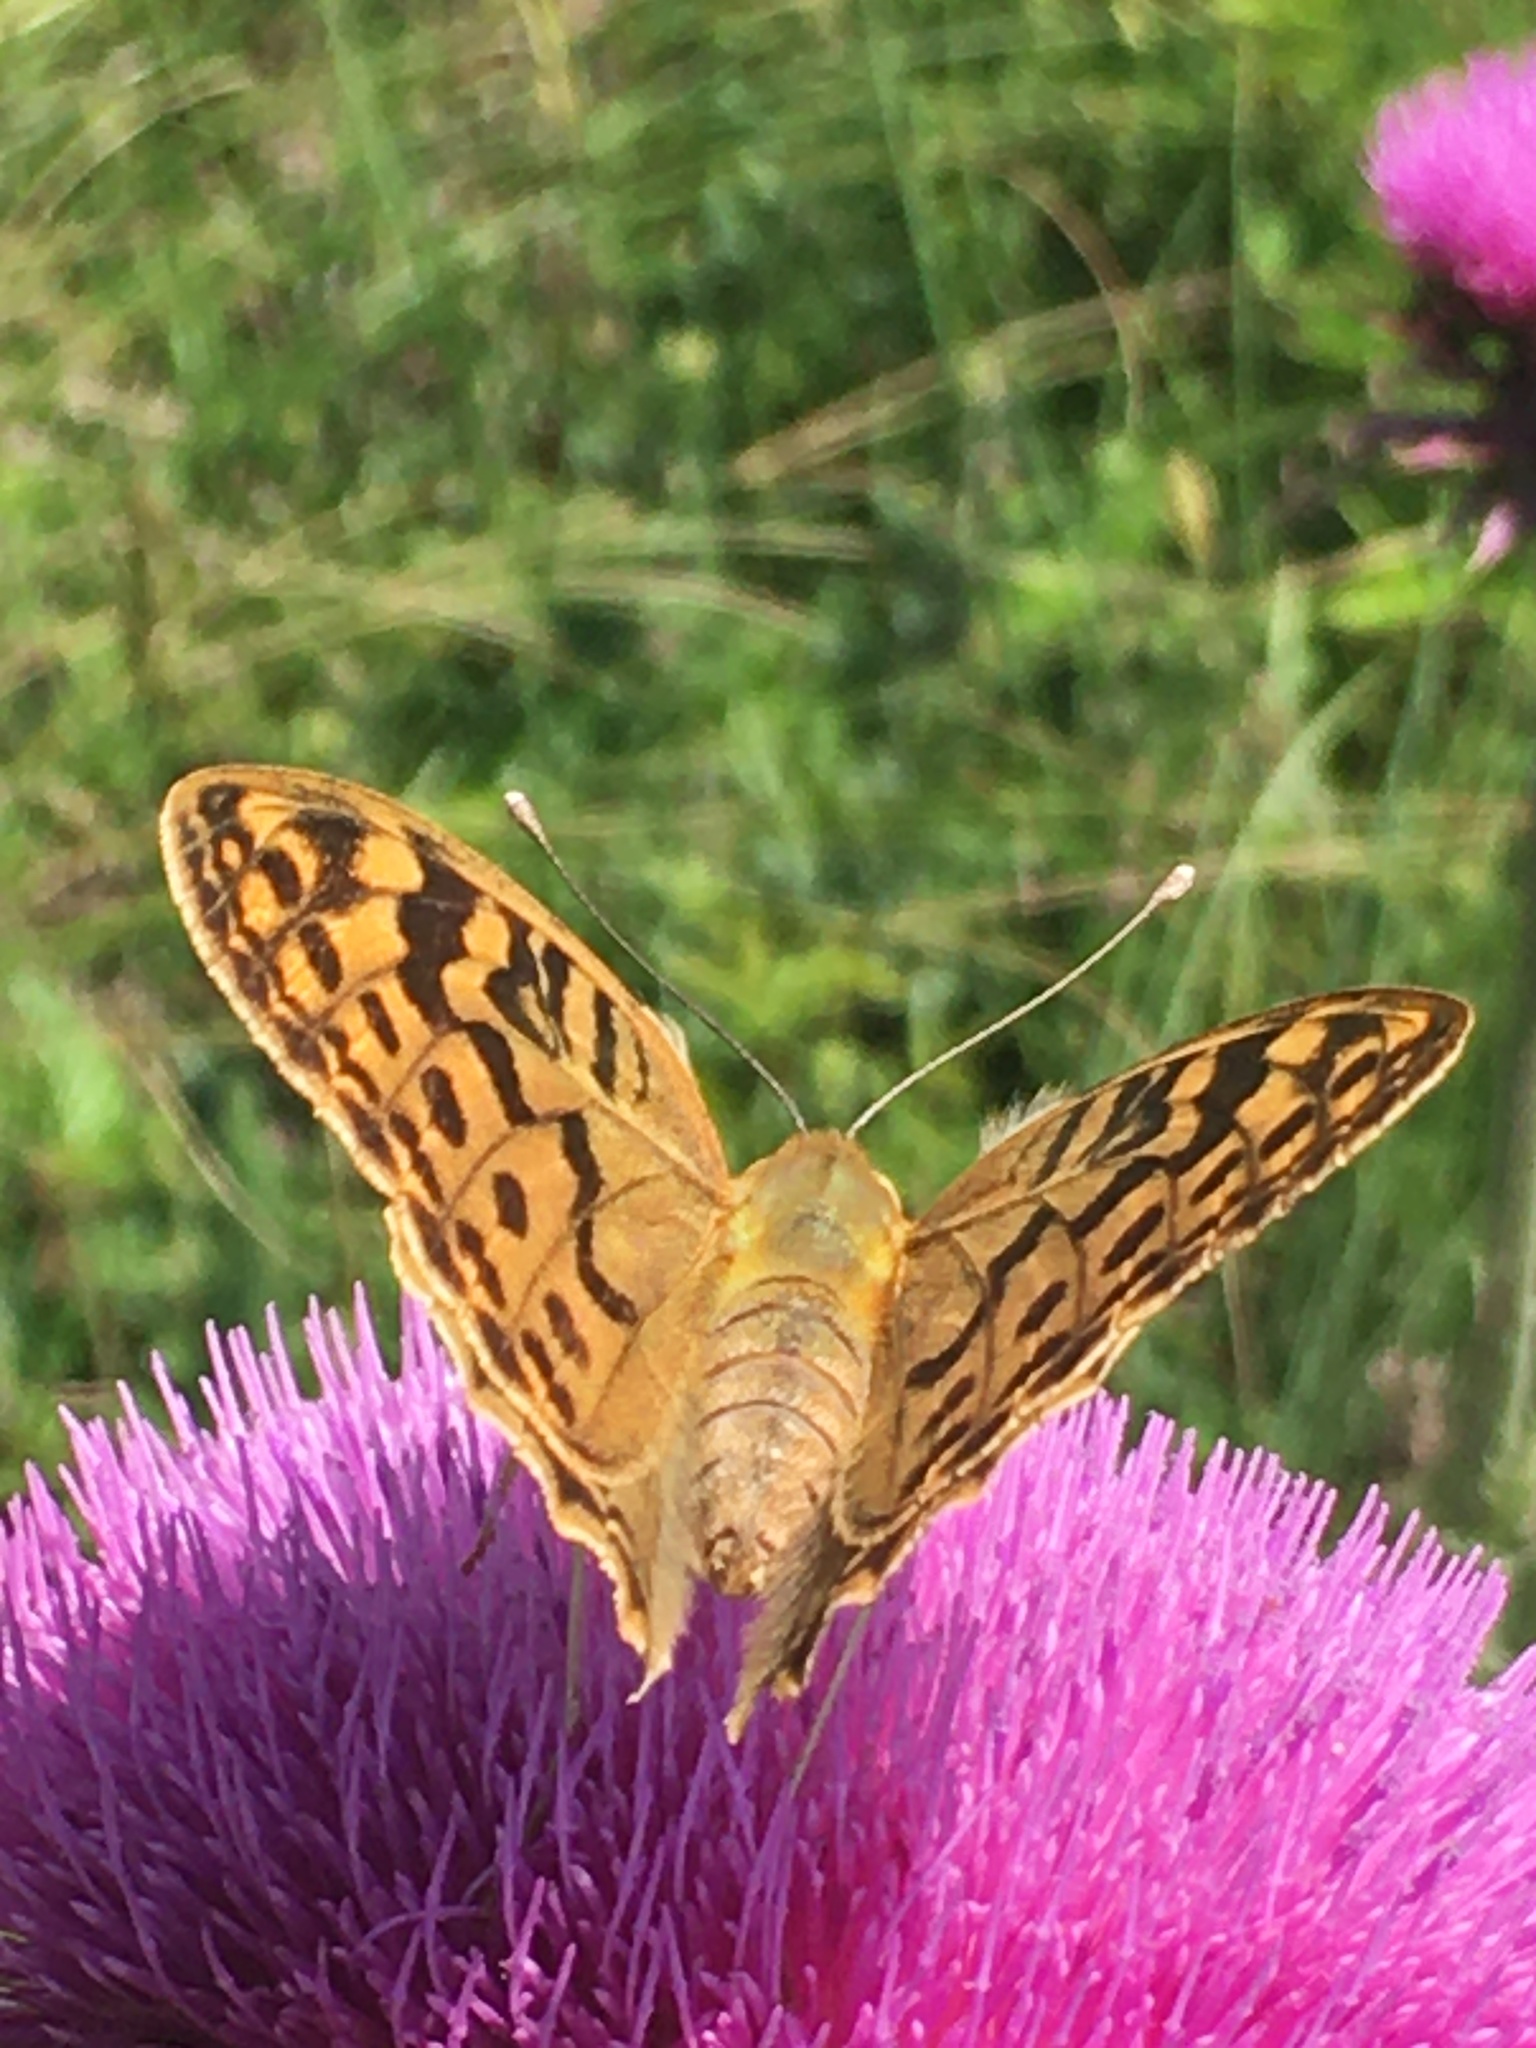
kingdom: Animalia
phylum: Arthropoda
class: Insecta
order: Lepidoptera
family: Nymphalidae
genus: Damora
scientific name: Damora pandora
